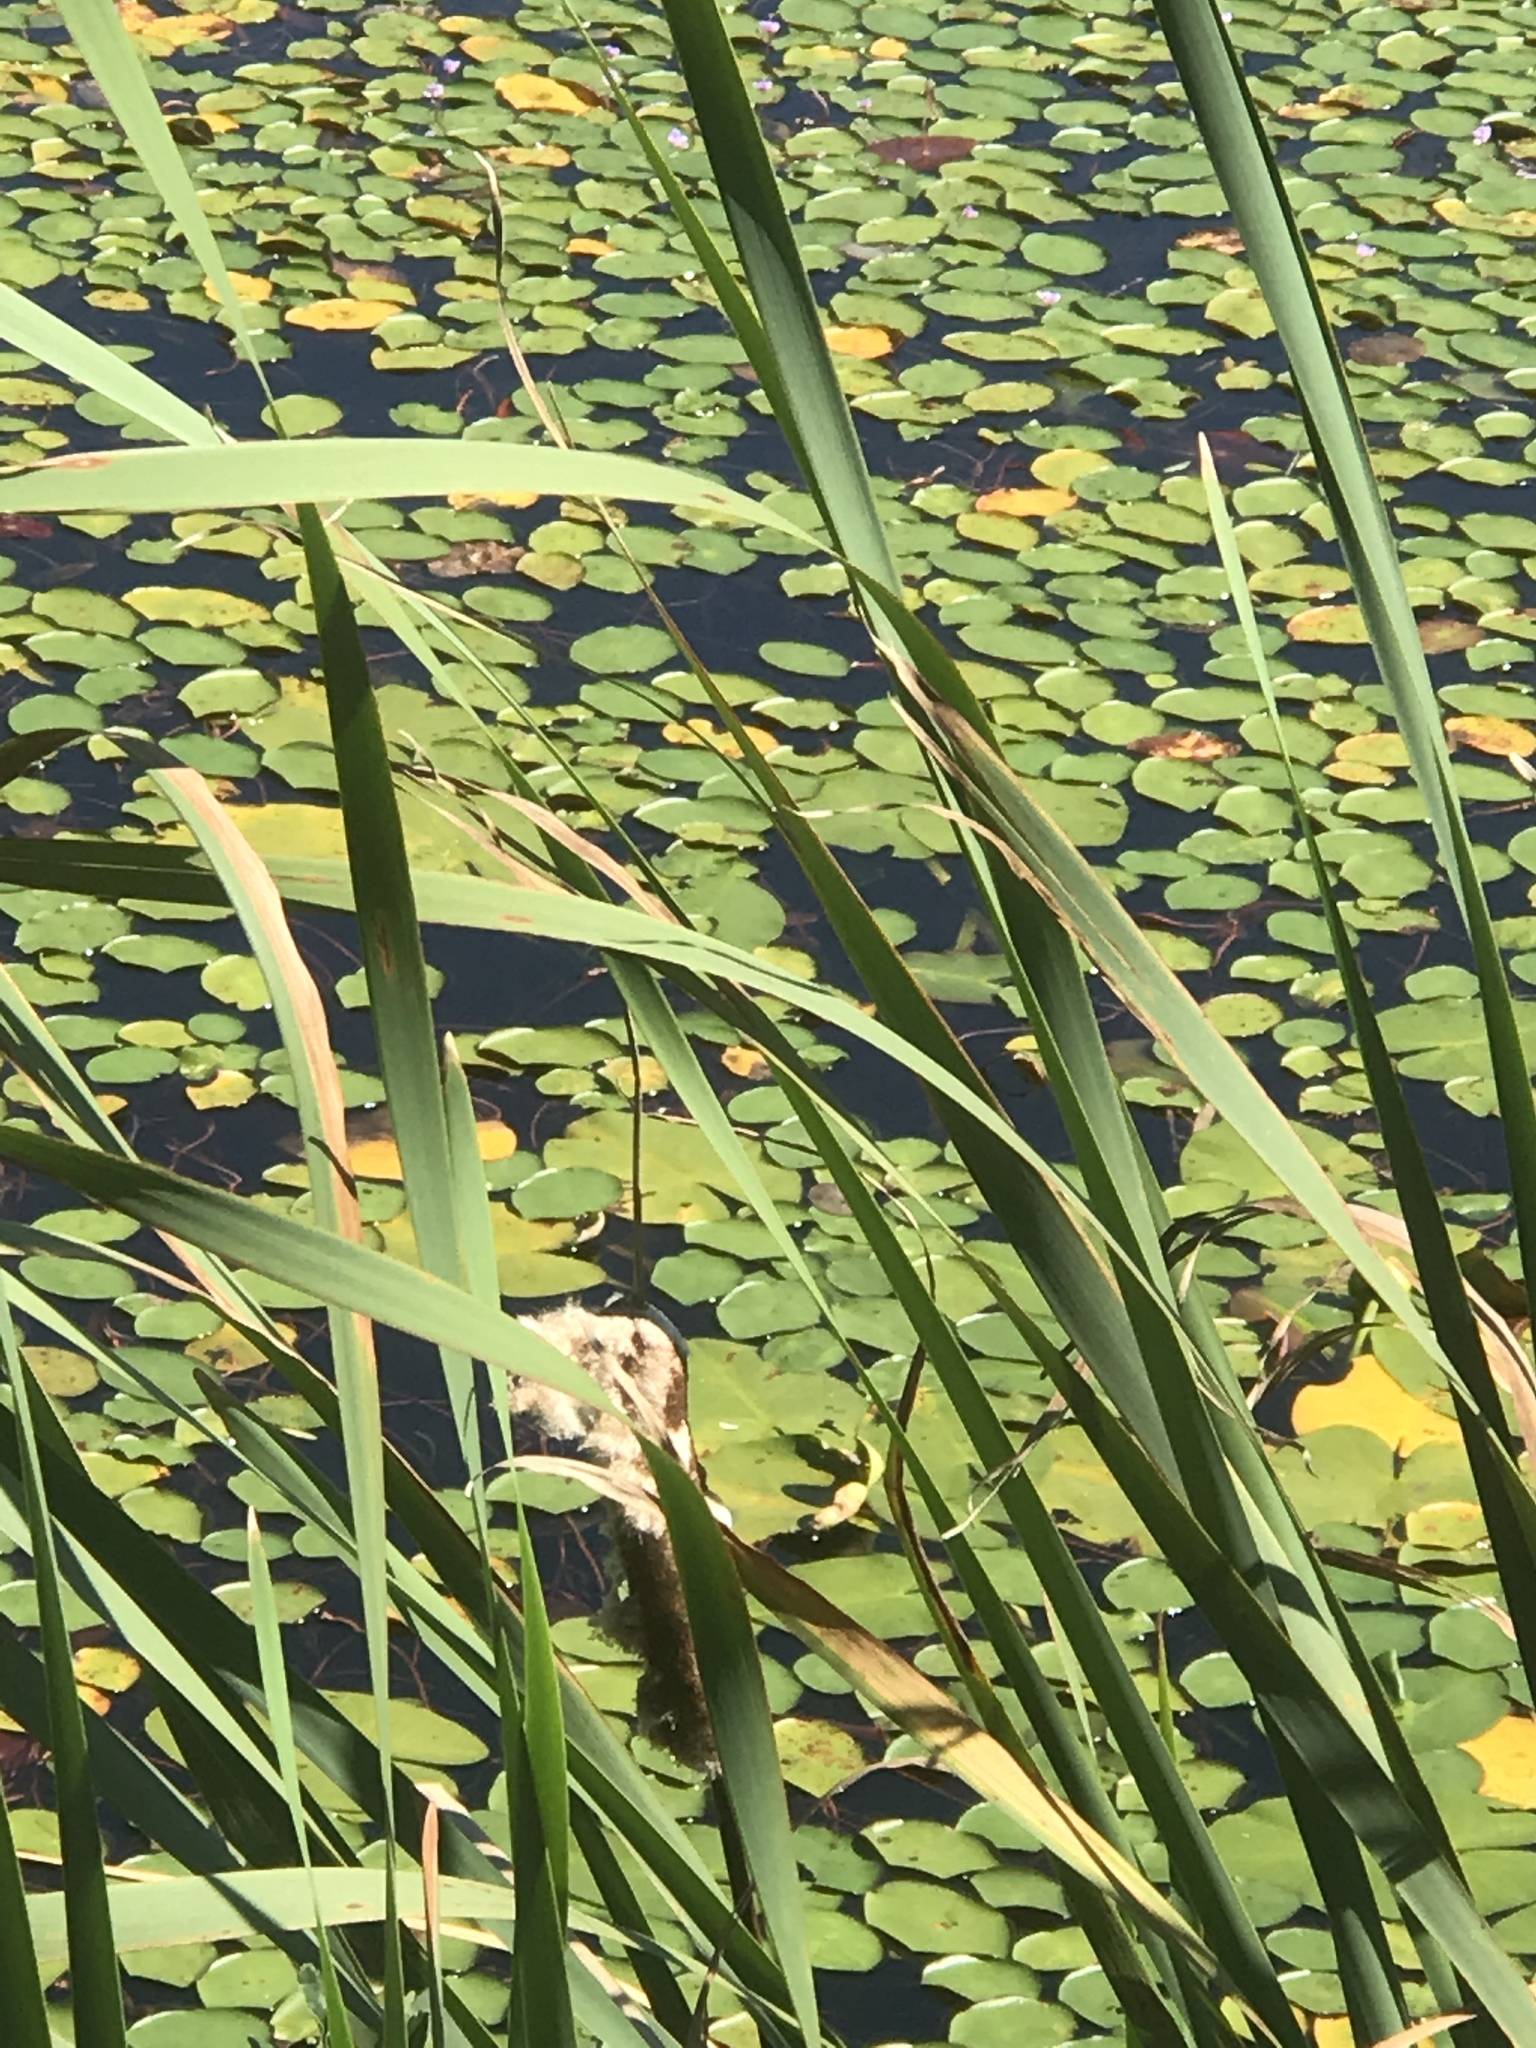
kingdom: Plantae
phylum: Tracheophyta
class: Liliopsida
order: Poales
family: Typhaceae
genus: Typha
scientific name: Typha angustifolia
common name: Lesser bulrush
